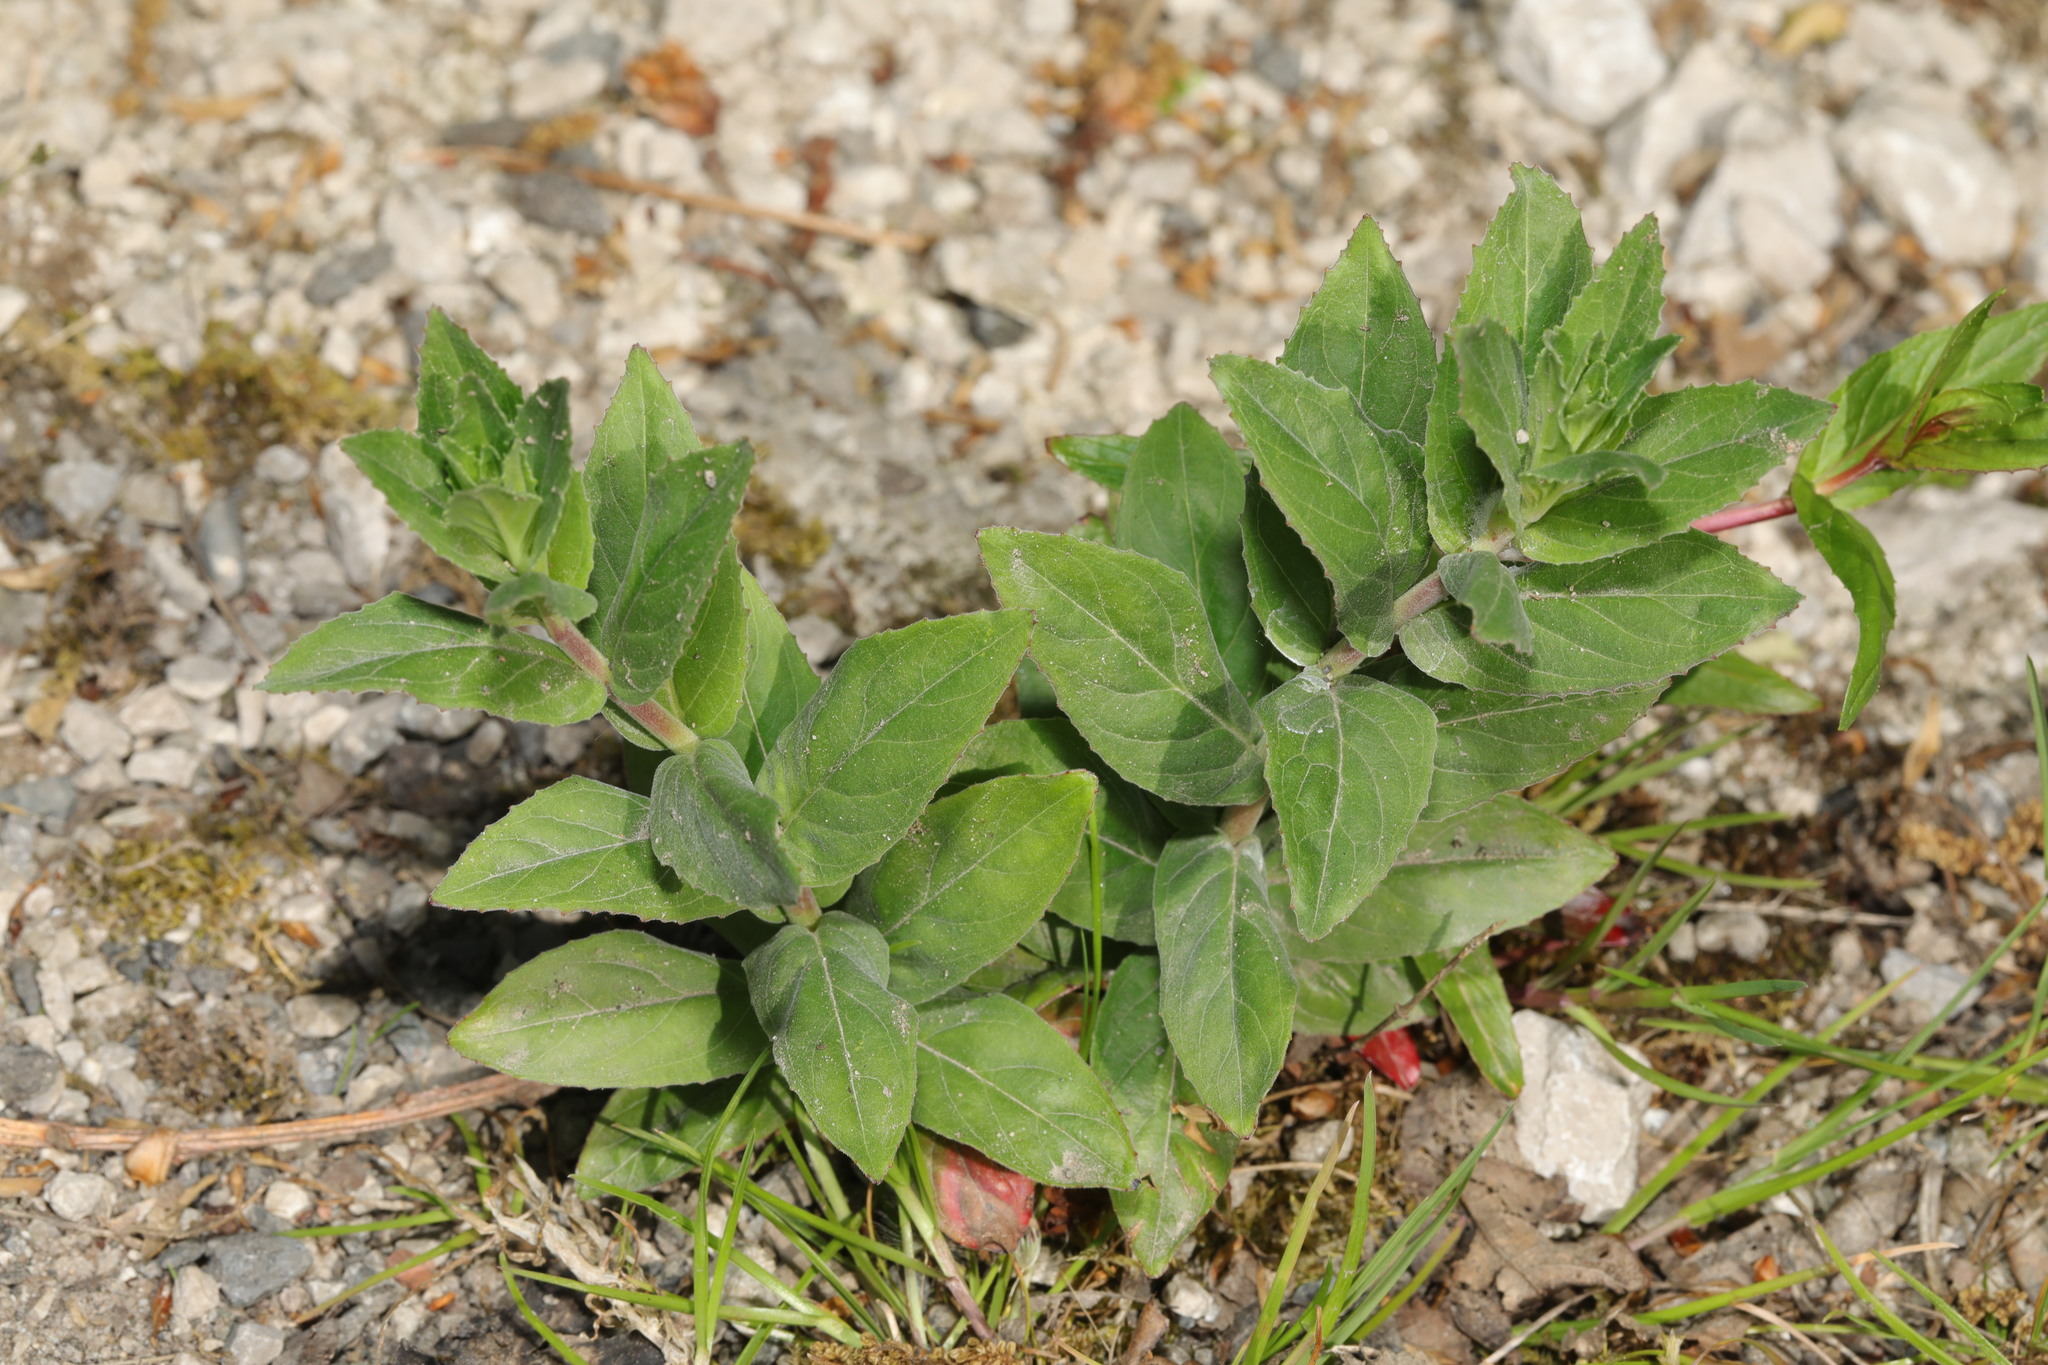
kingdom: Plantae
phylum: Tracheophyta
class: Magnoliopsida
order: Myrtales
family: Onagraceae
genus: Epilobium
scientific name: Epilobium montanum
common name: Broad-leaved willowherb
